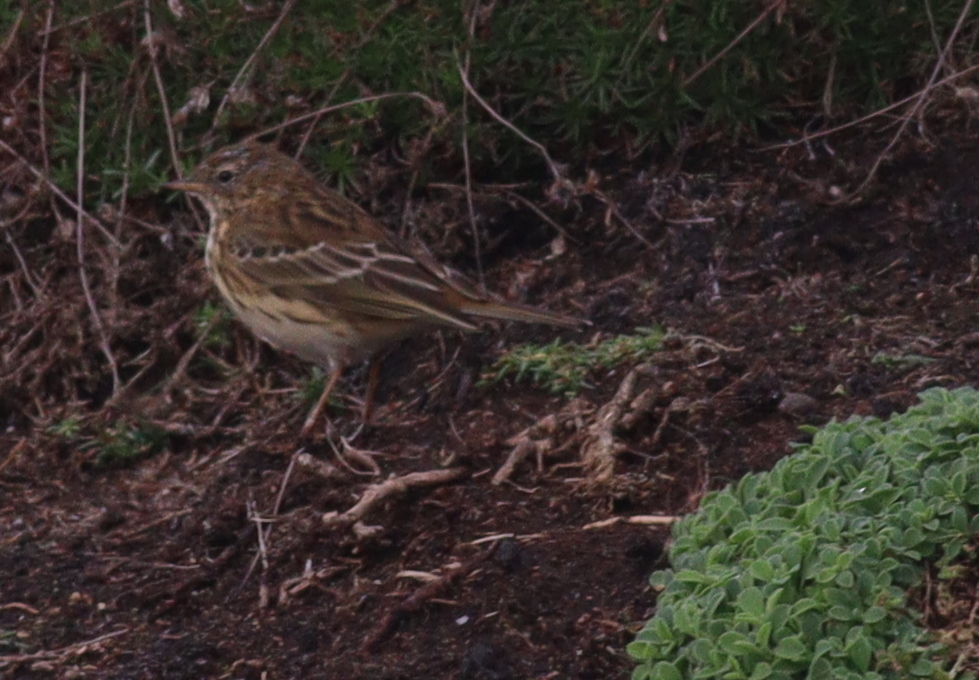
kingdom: Animalia
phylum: Chordata
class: Aves
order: Passeriformes
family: Motacillidae
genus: Anthus
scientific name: Anthus pratensis
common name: Meadow pipit
